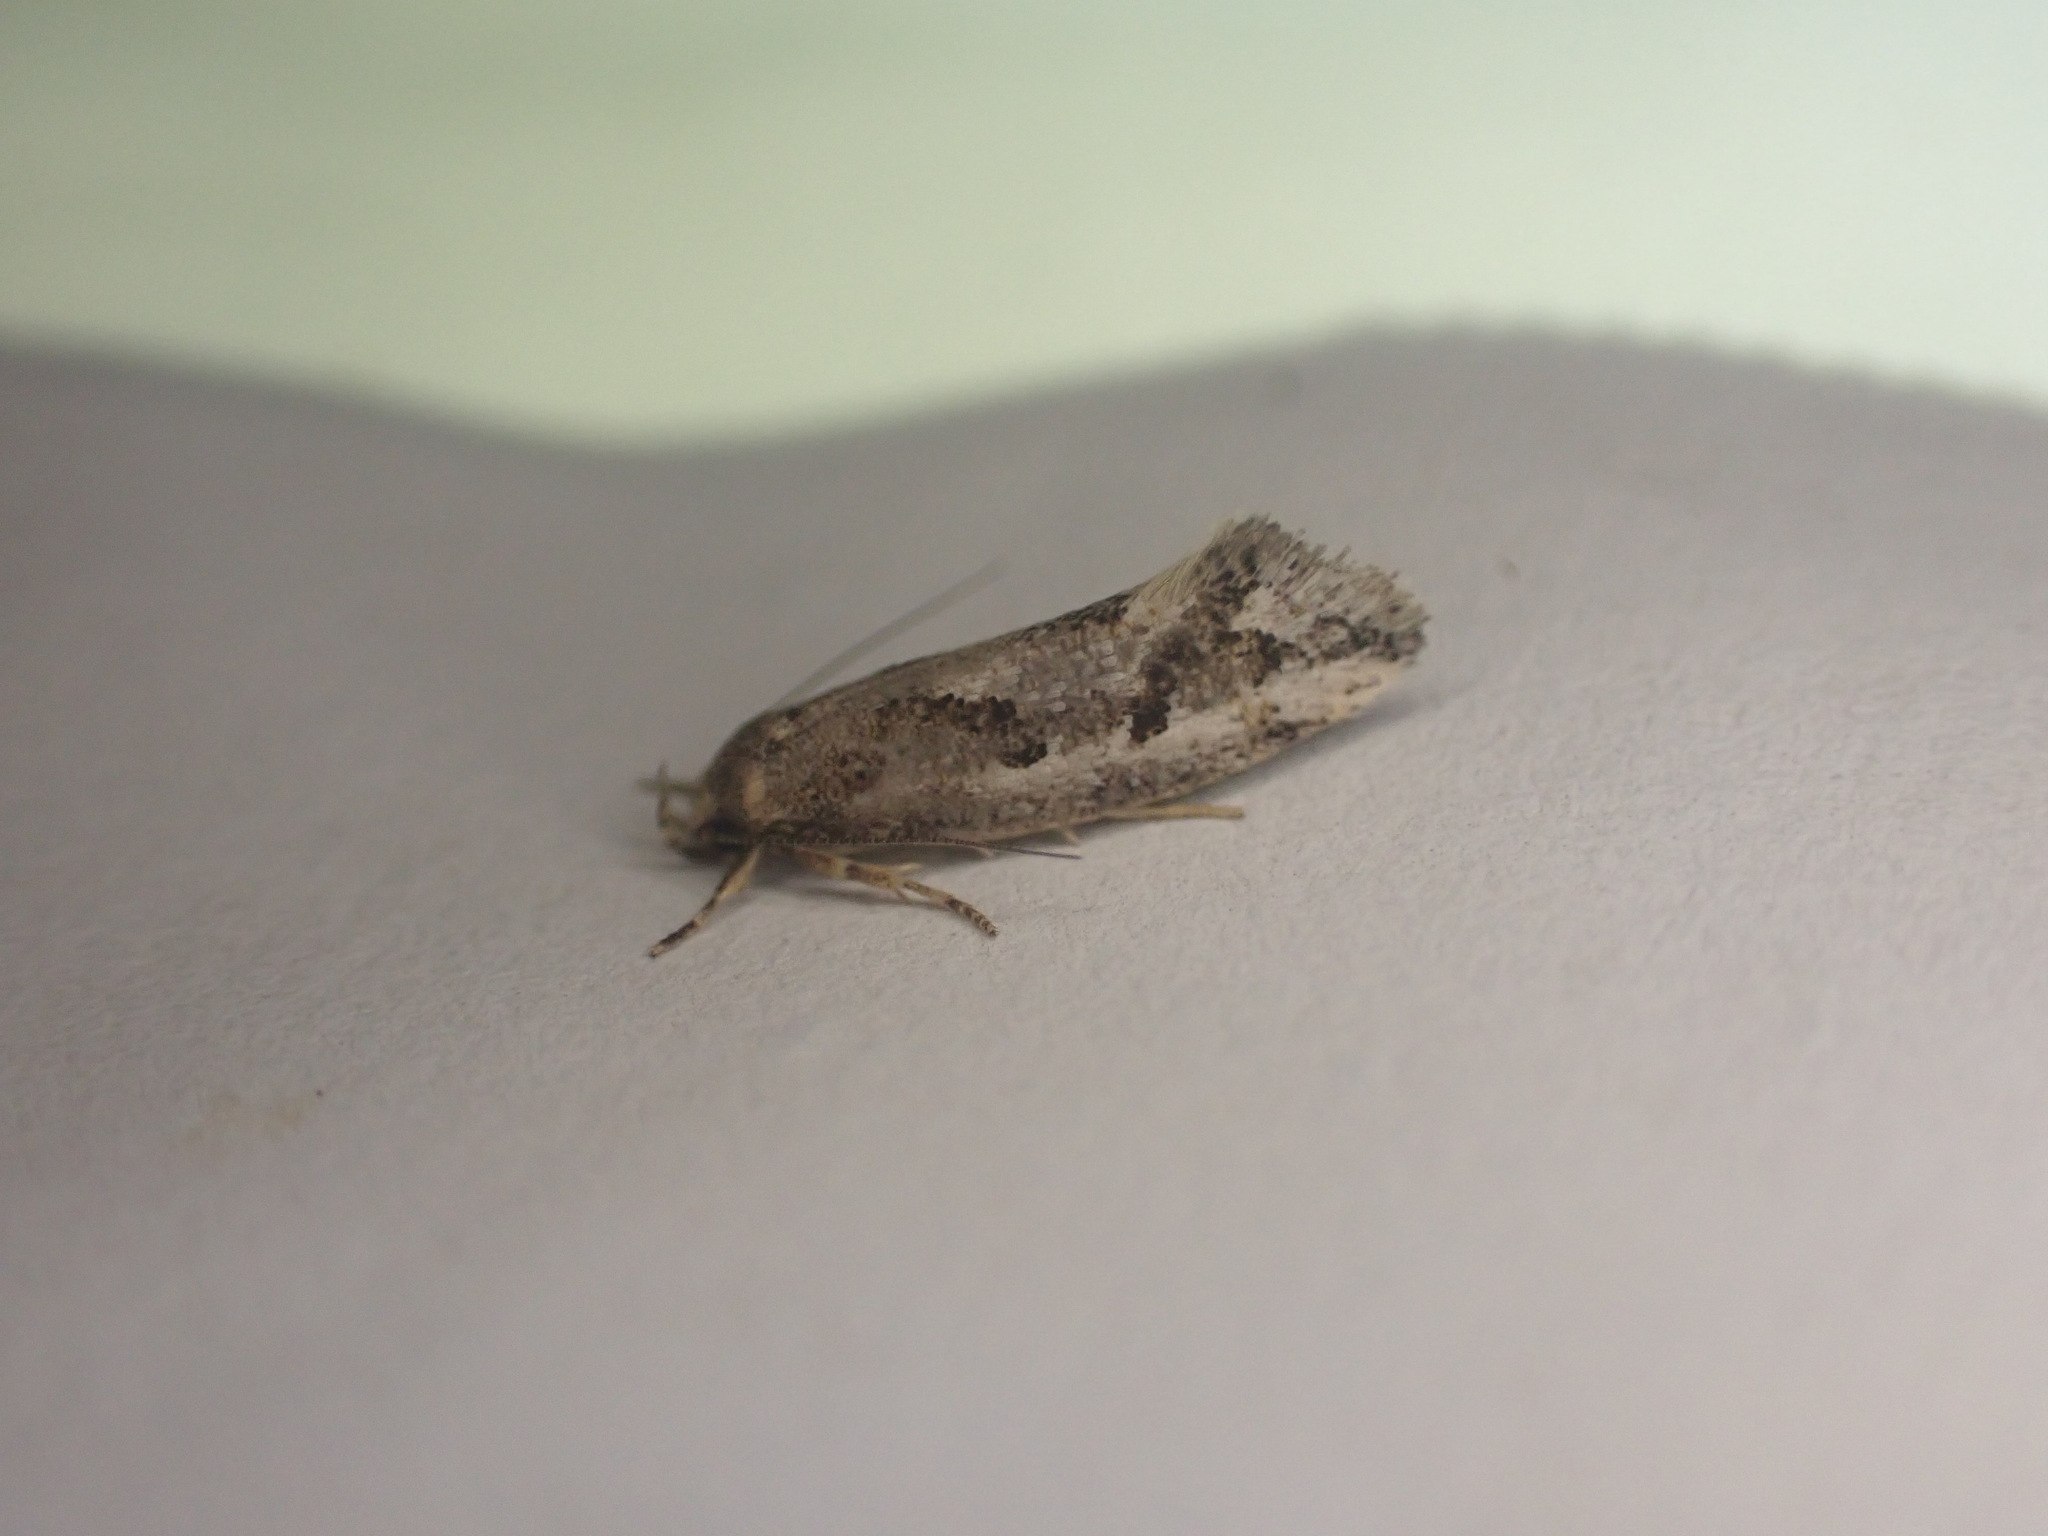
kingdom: Animalia
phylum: Arthropoda
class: Insecta
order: Lepidoptera
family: Oecophoridae
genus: Tingena
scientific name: Tingena hemimochla
